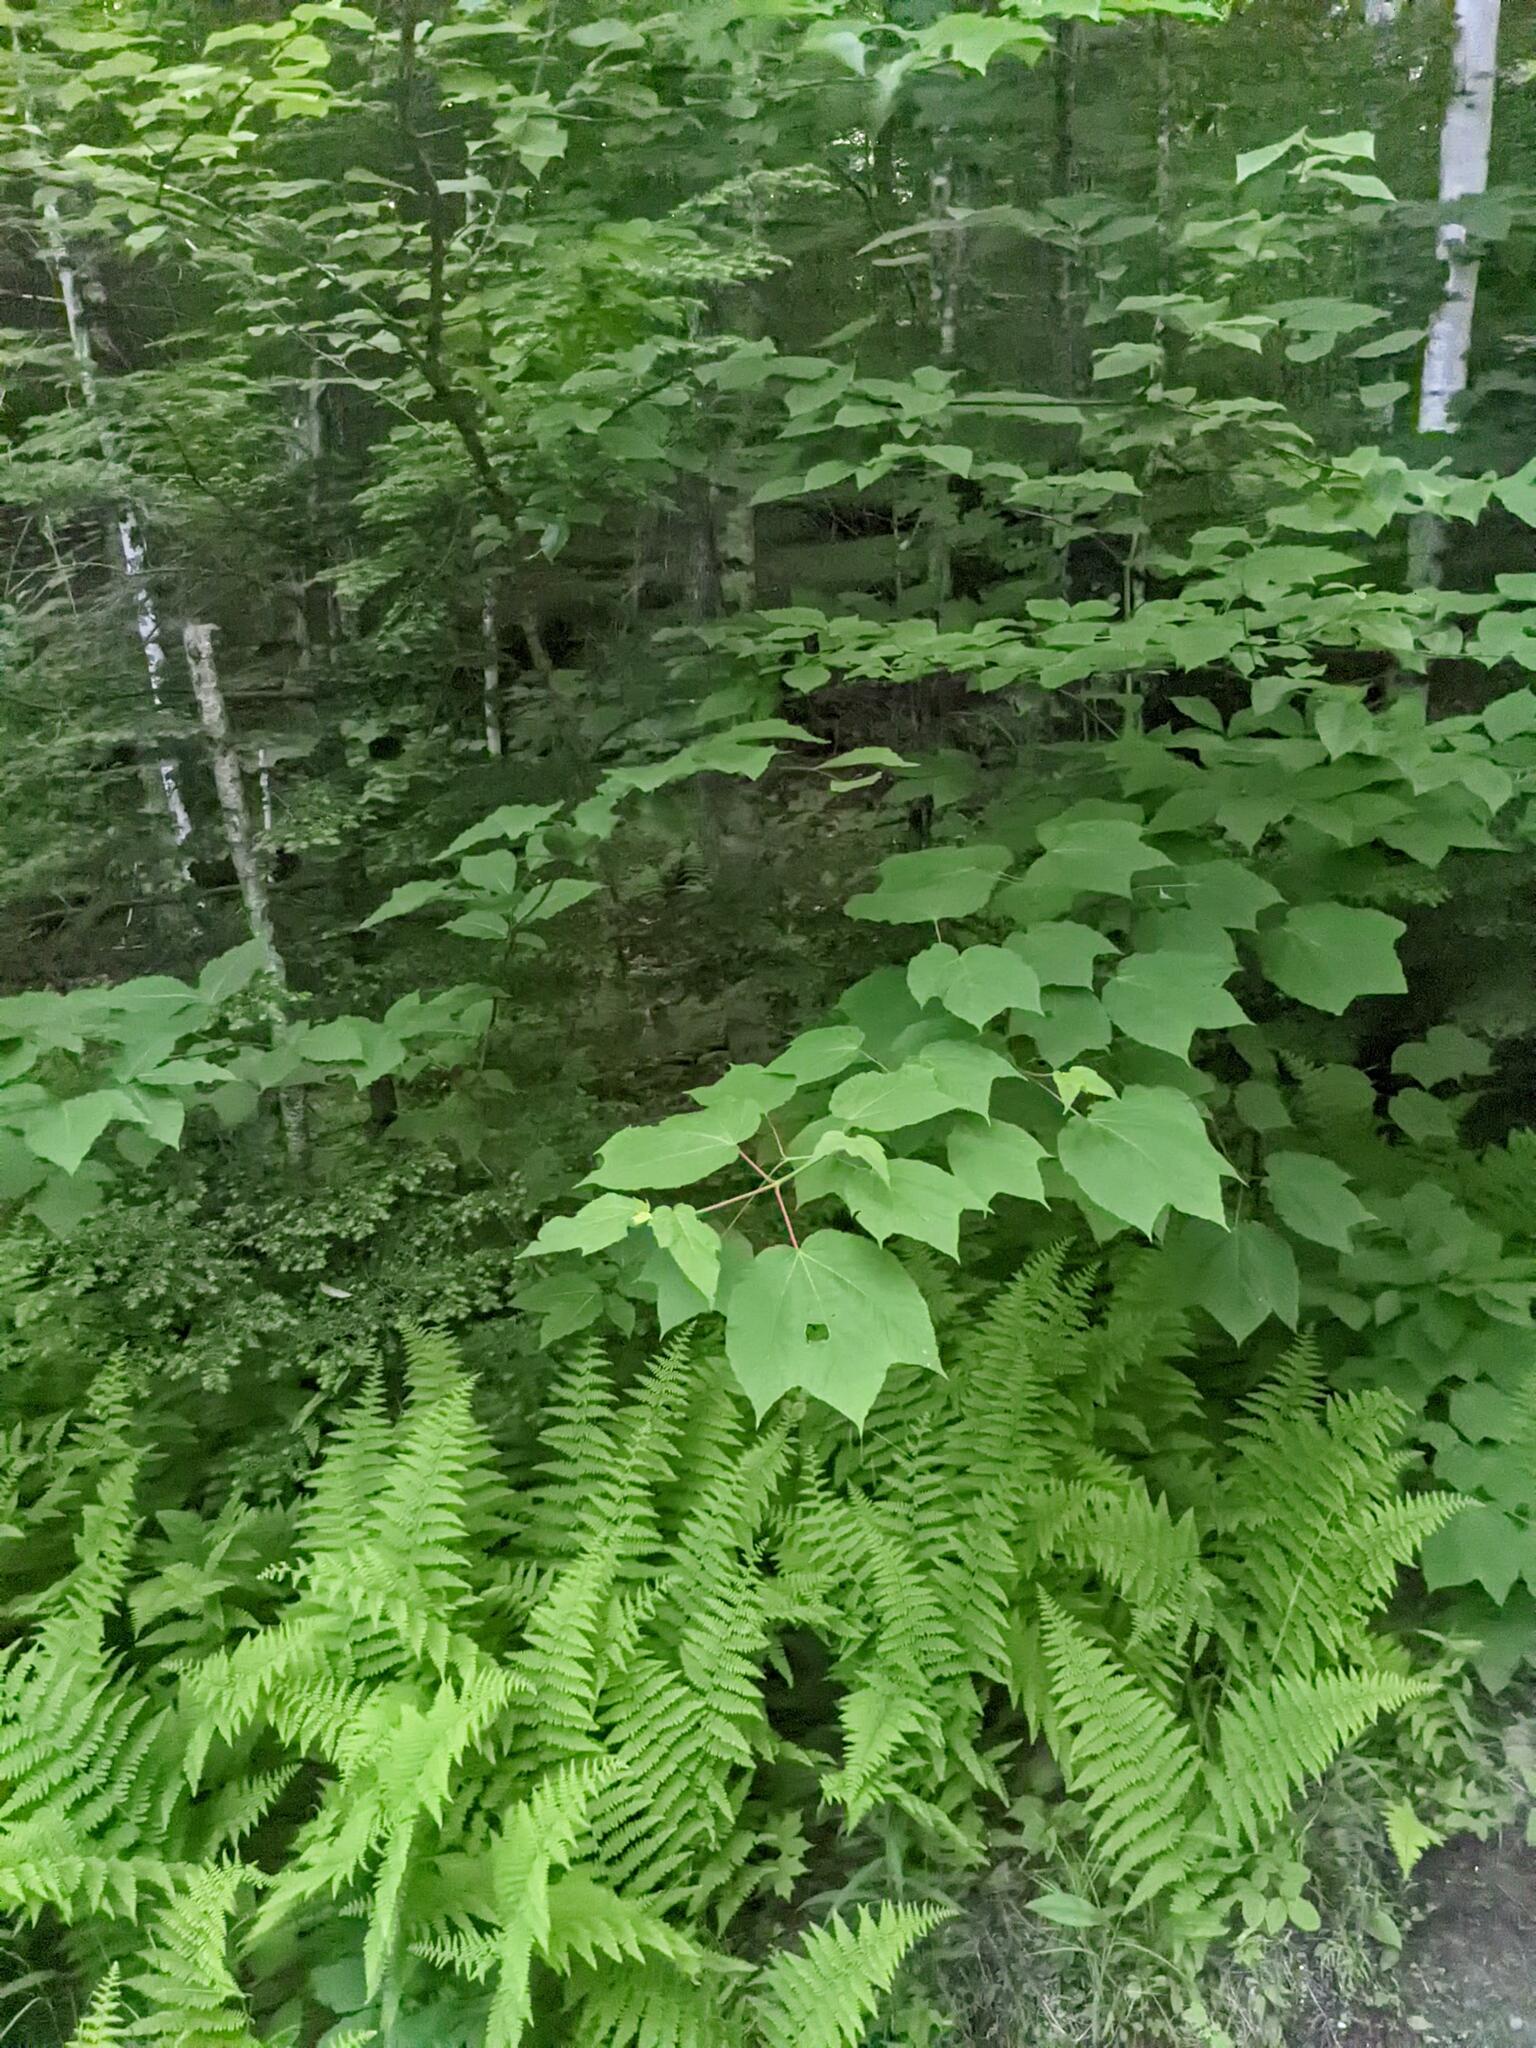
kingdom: Plantae
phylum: Tracheophyta
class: Magnoliopsida
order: Sapindales
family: Sapindaceae
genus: Acer
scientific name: Acer pensylvanicum
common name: Moosewood
